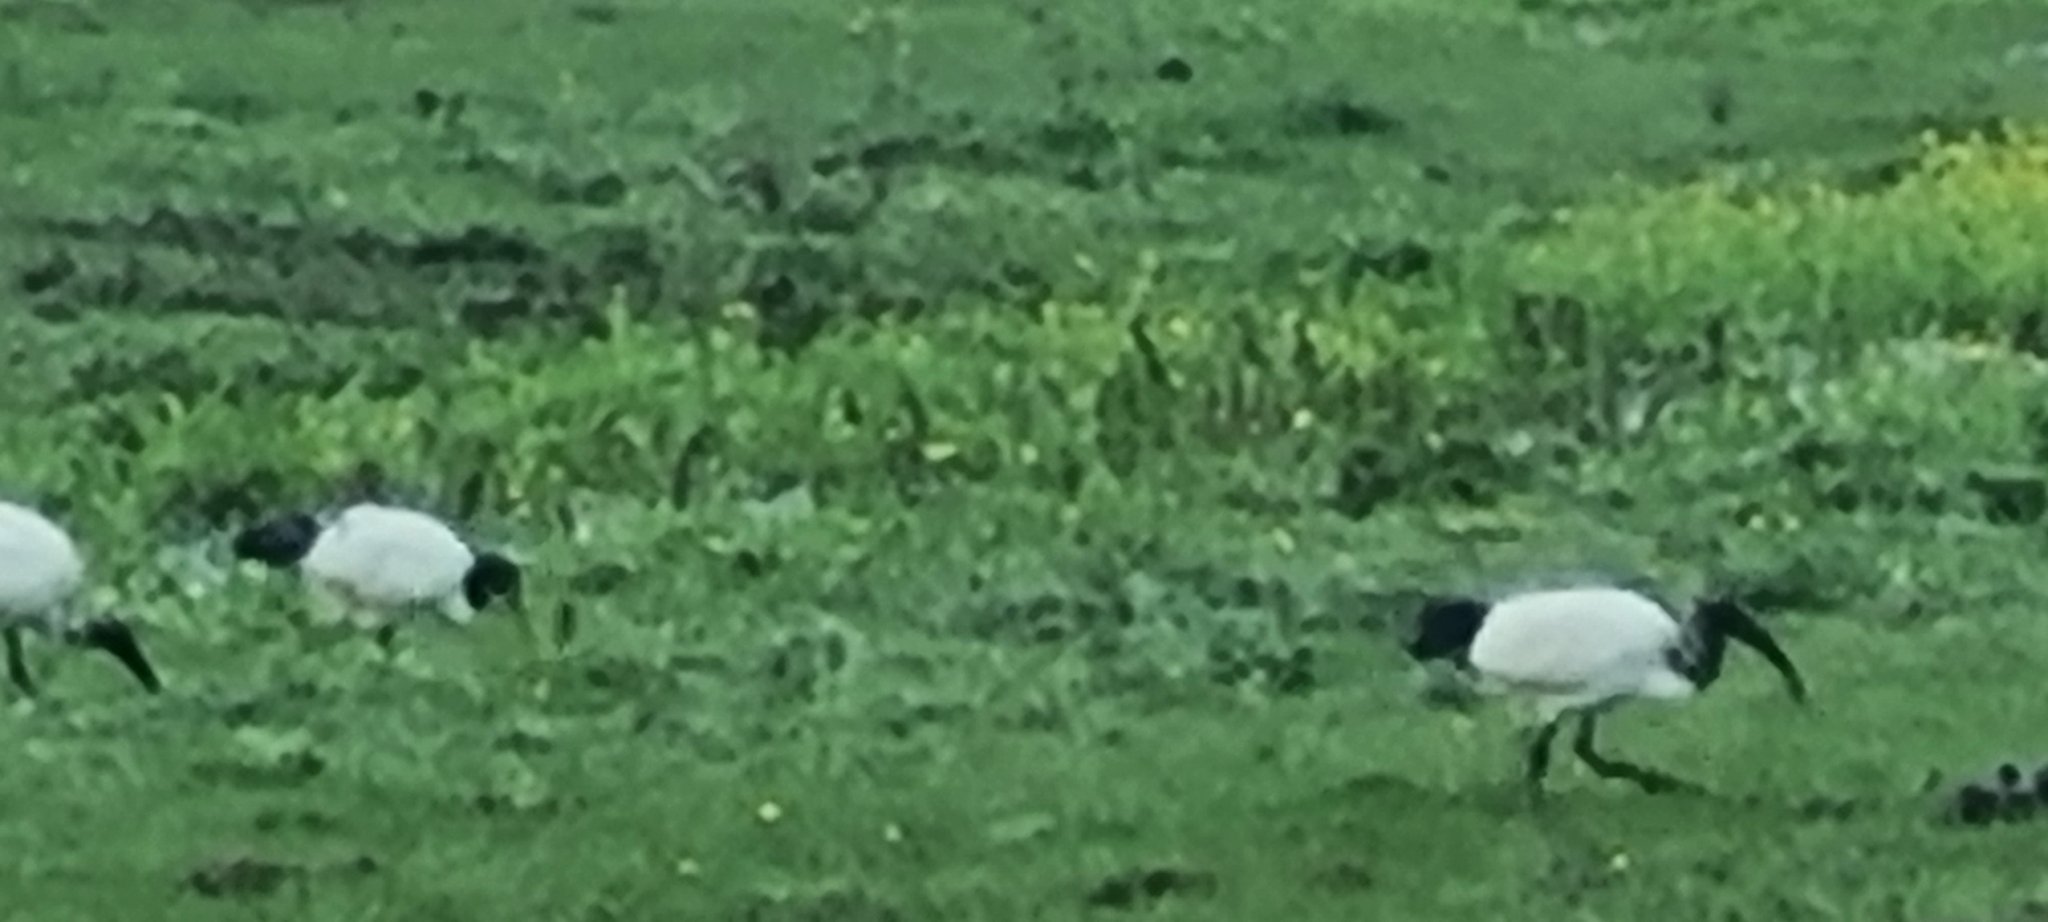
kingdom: Animalia
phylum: Chordata
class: Aves
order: Pelecaniformes
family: Threskiornithidae
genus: Threskiornis
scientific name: Threskiornis aethiopicus
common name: Sacred ibis
